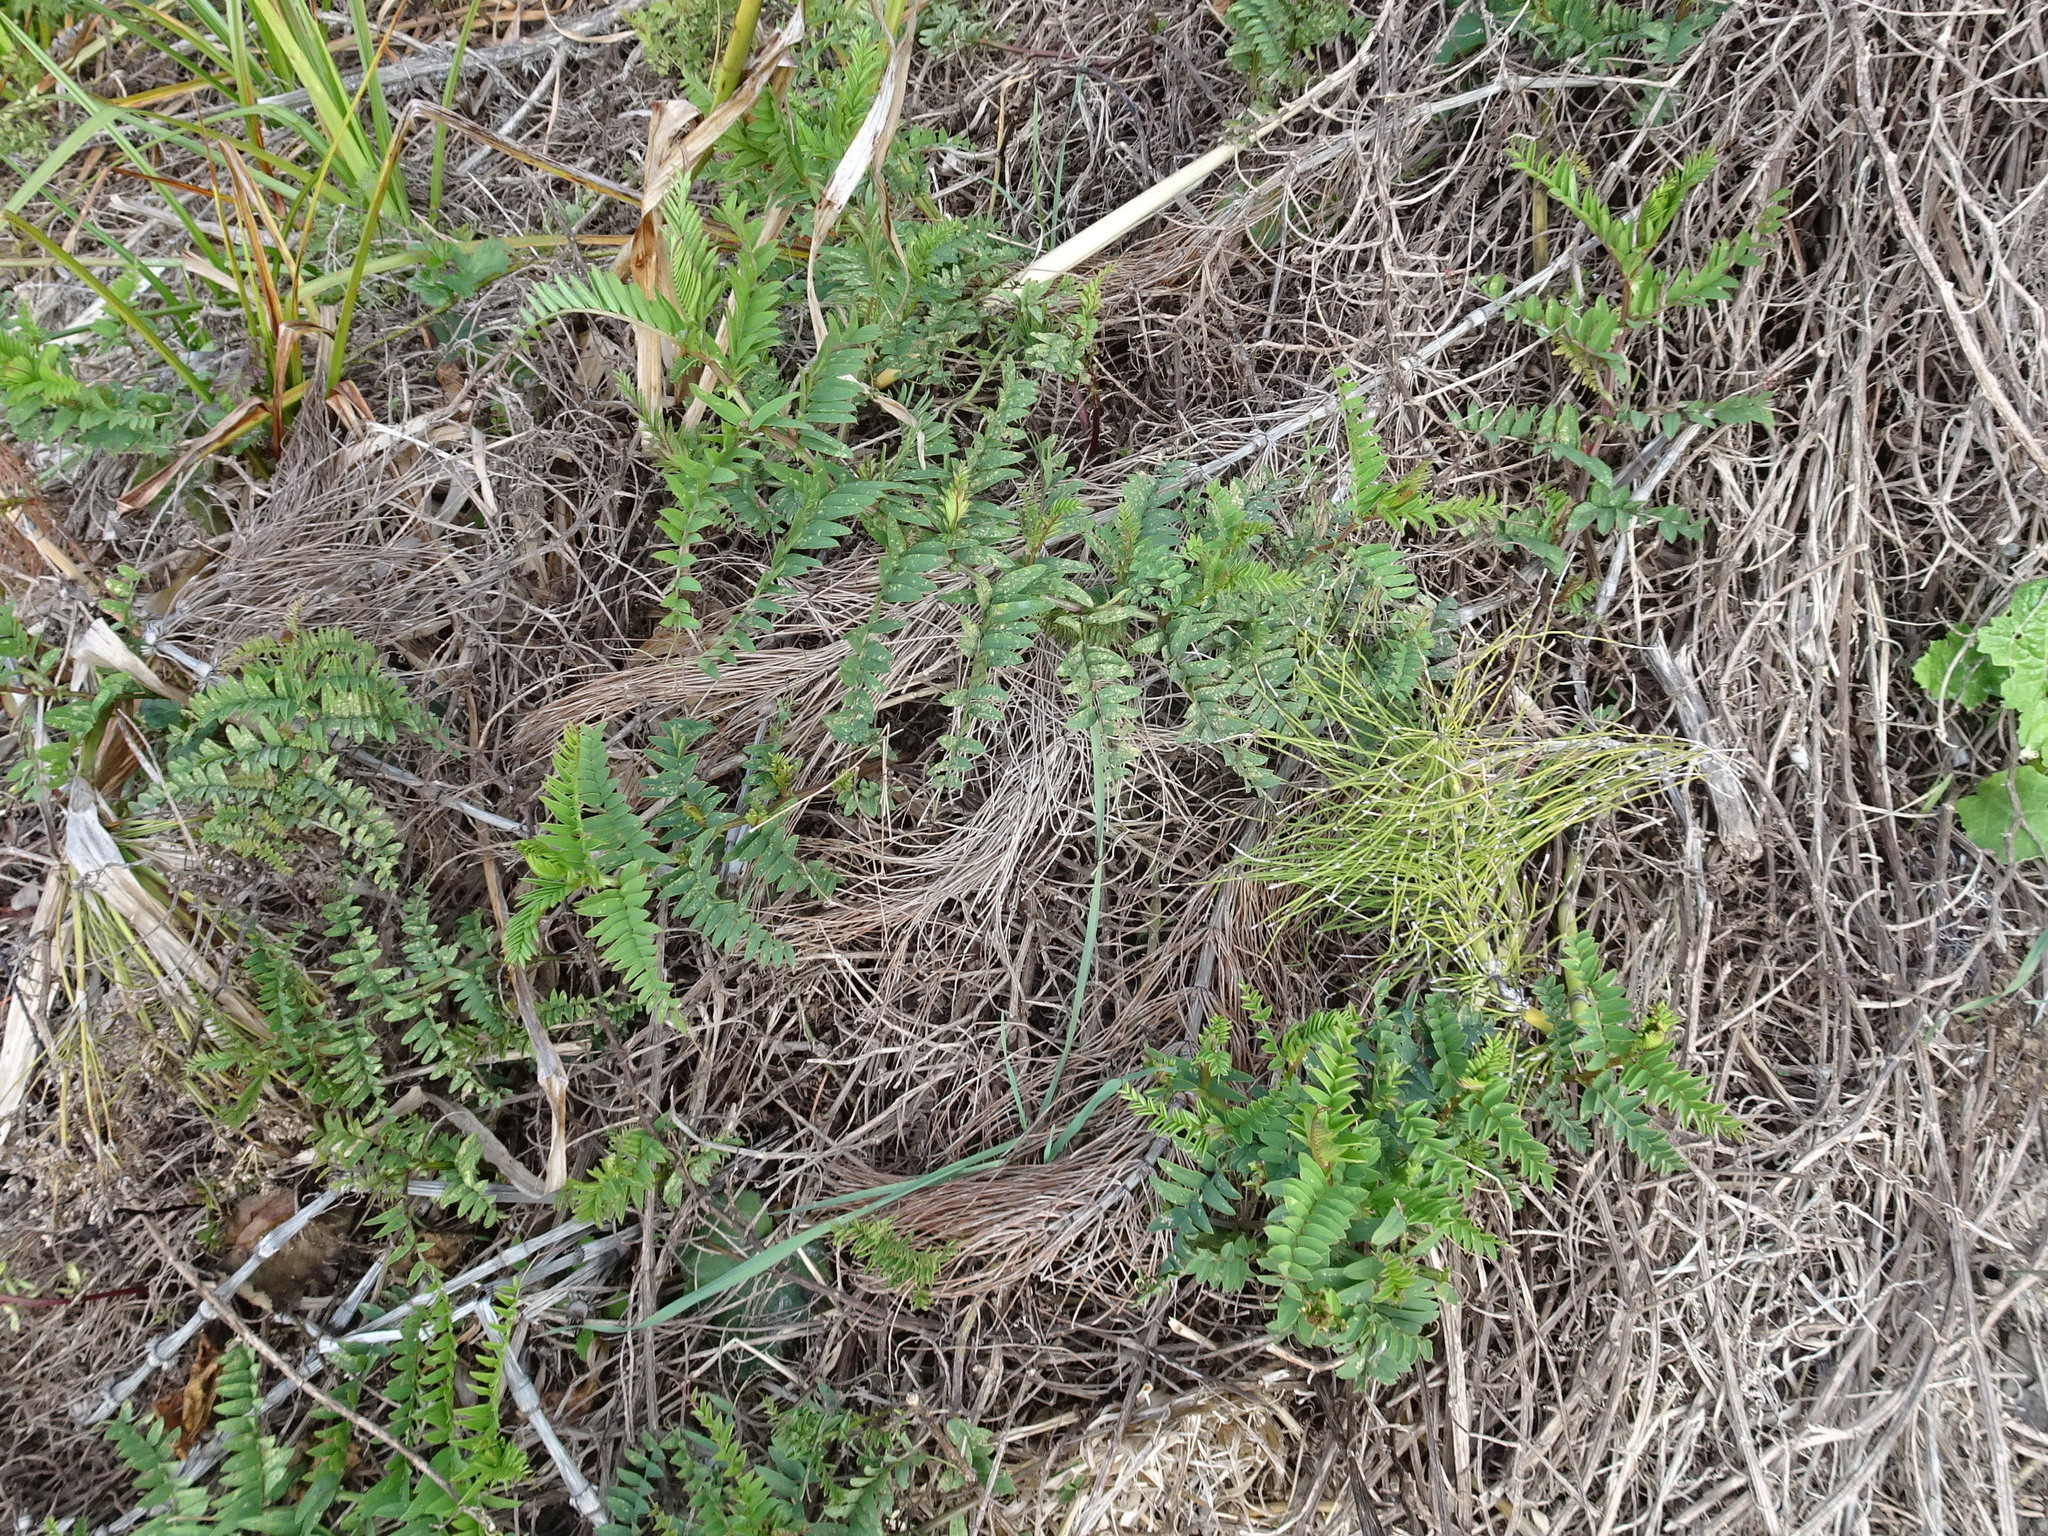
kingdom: Plantae
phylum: Tracheophyta
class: Magnoliopsida
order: Fabales
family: Fabaceae
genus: Vicia
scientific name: Vicia
